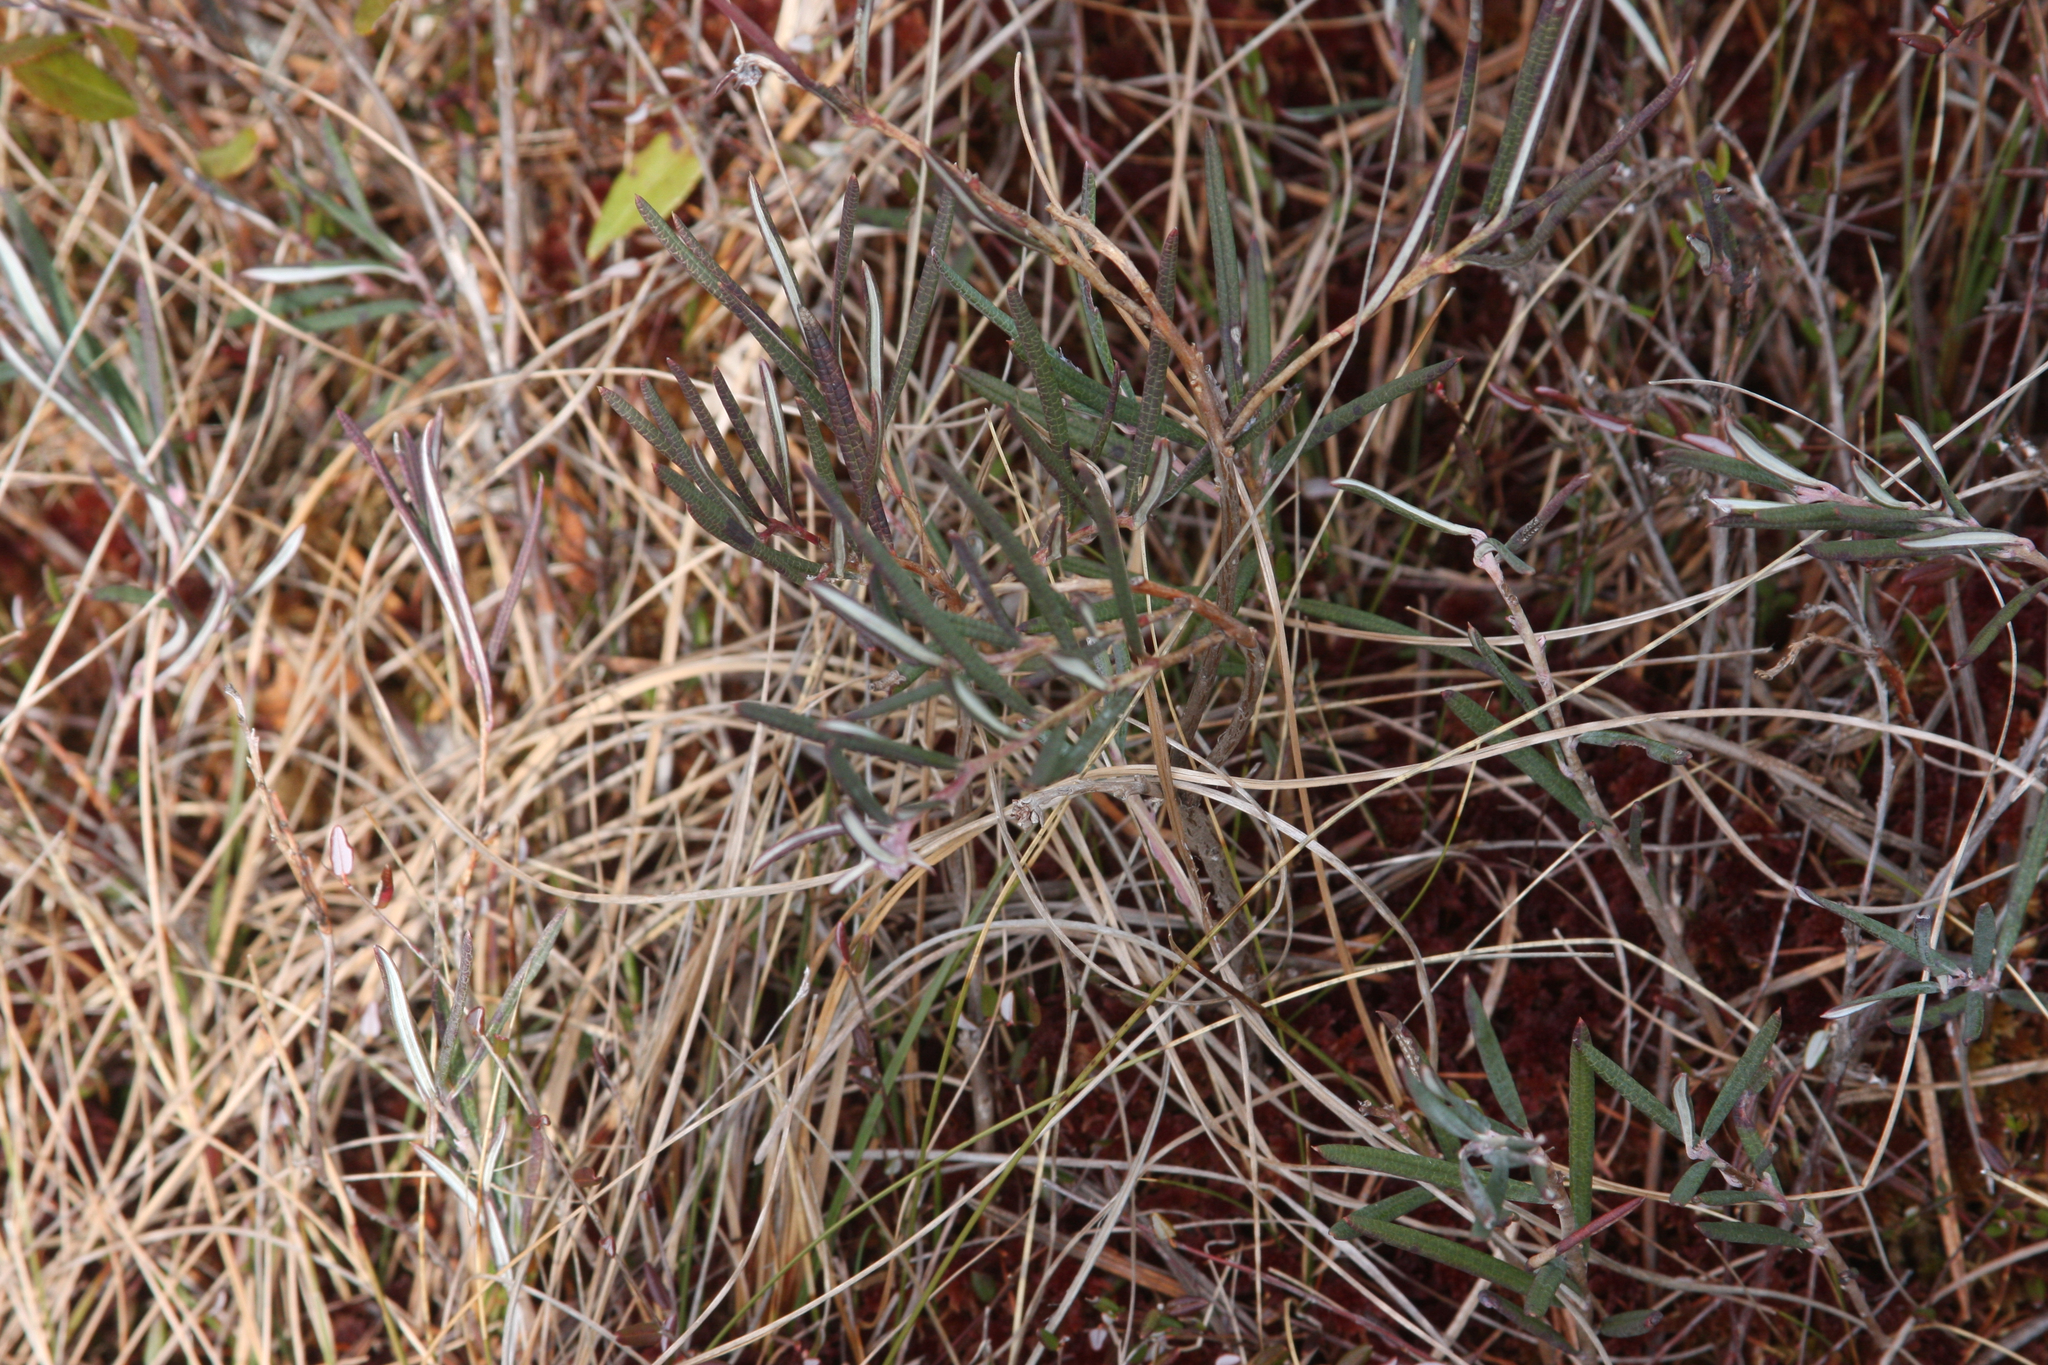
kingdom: Plantae
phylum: Tracheophyta
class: Magnoliopsida
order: Ericales
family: Ericaceae
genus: Andromeda
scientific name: Andromeda polifolia
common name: Bog-rosemary
